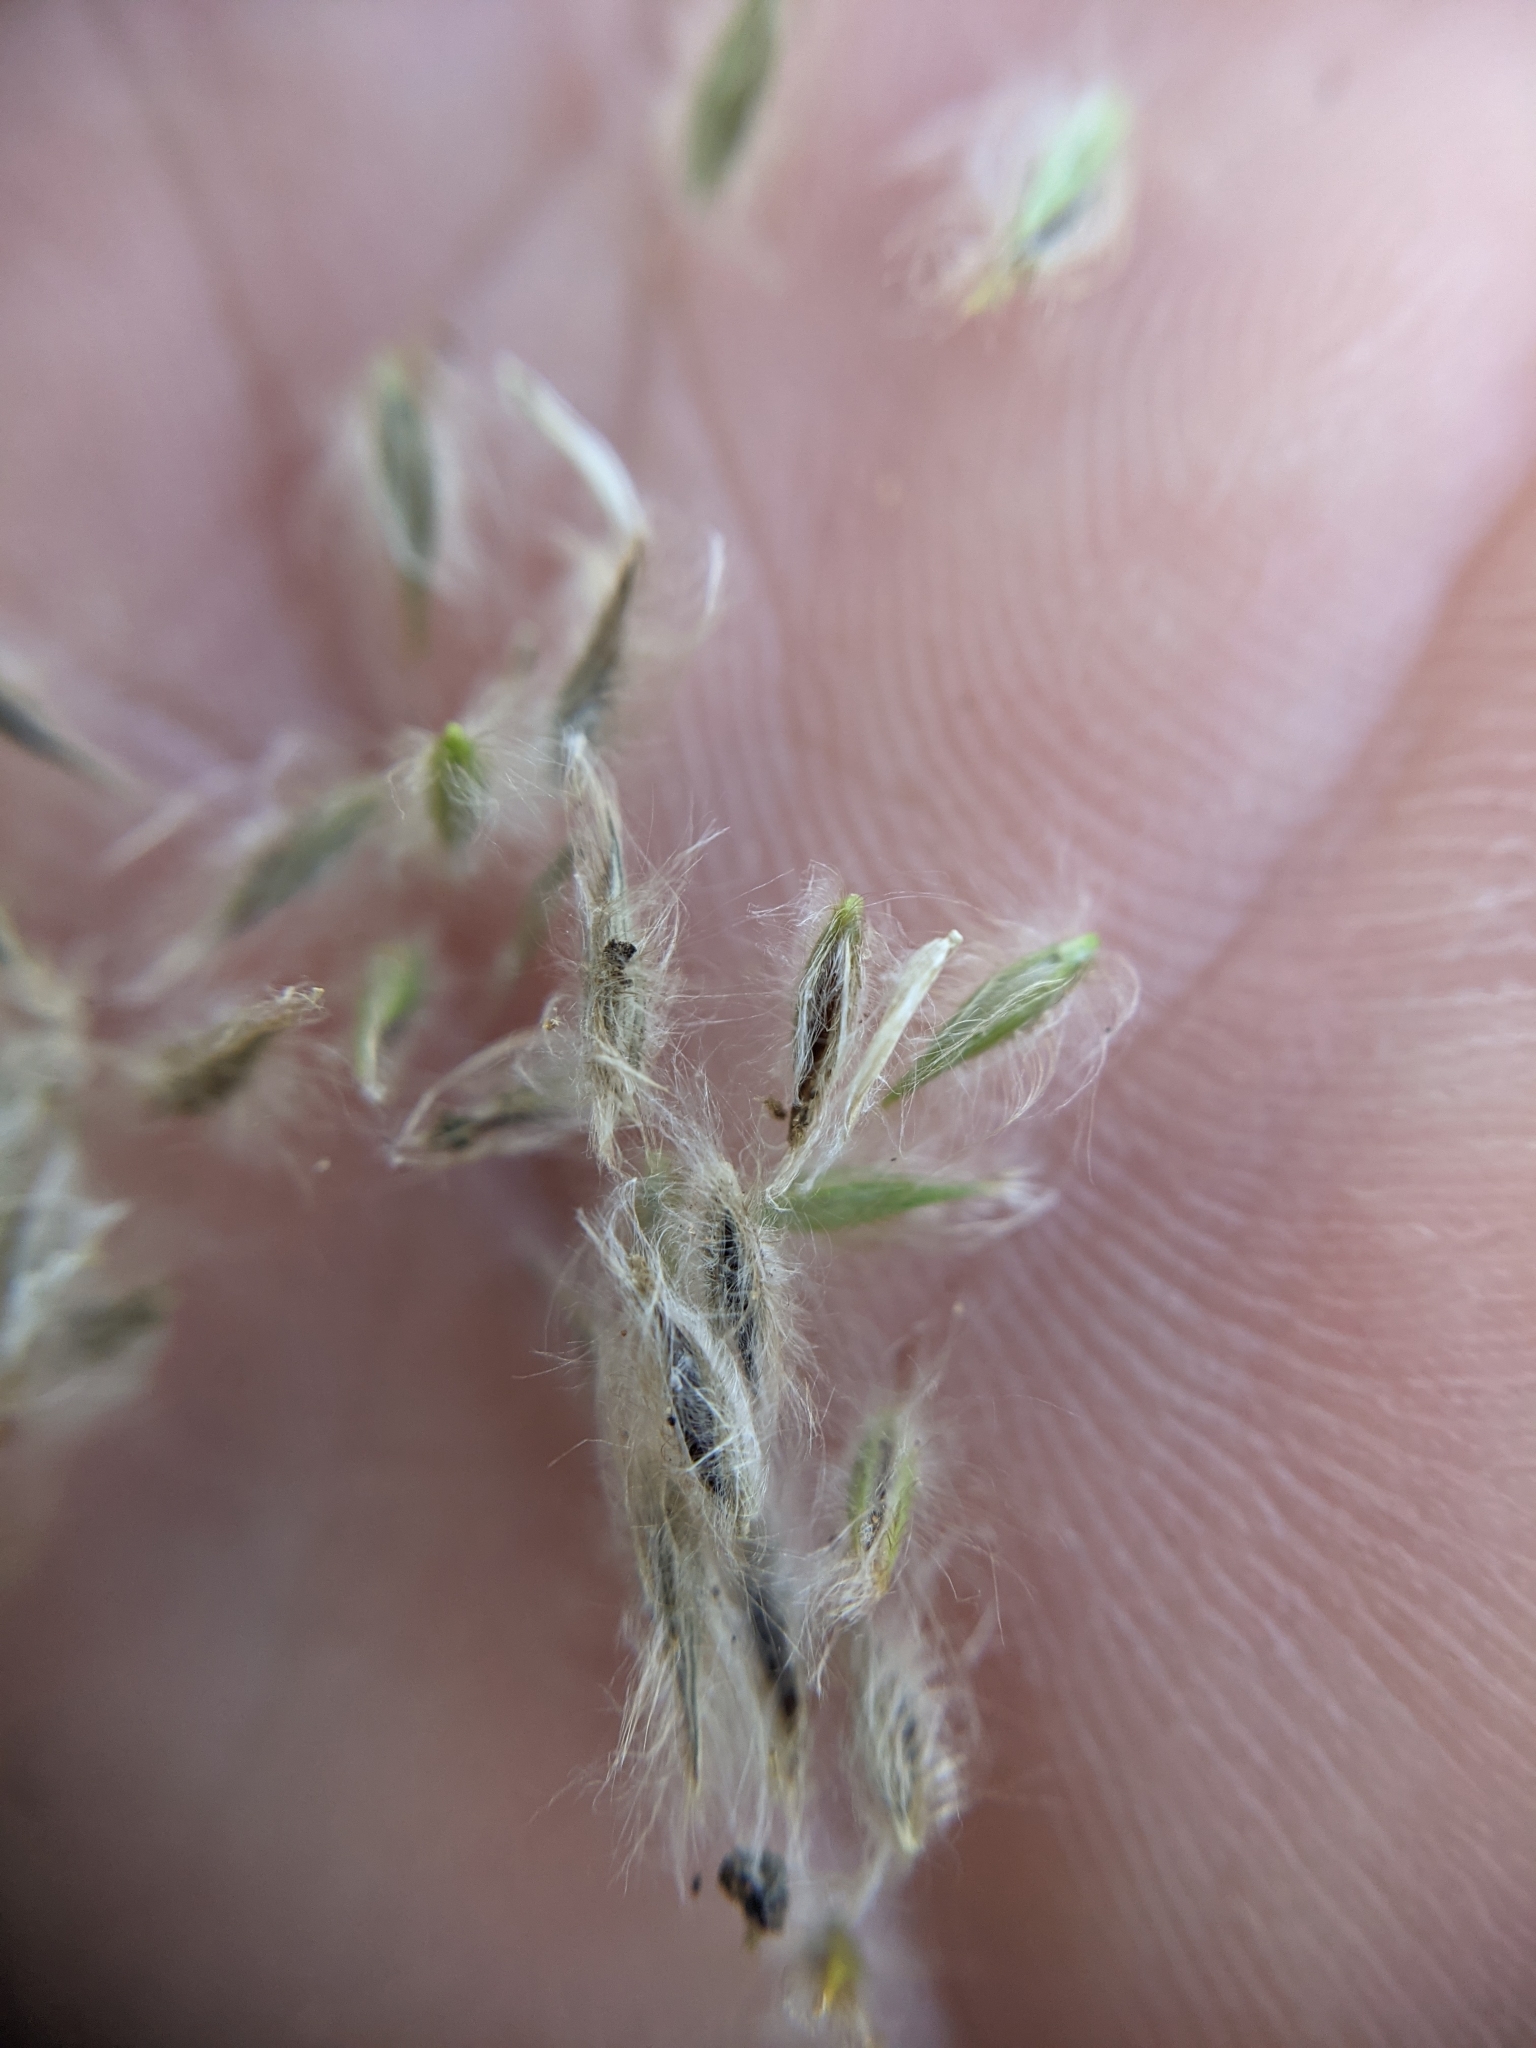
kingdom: Plantae
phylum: Tracheophyta
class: Liliopsida
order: Poales
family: Poaceae
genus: Digitaria
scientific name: Digitaria californica
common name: Arizona cottontop
